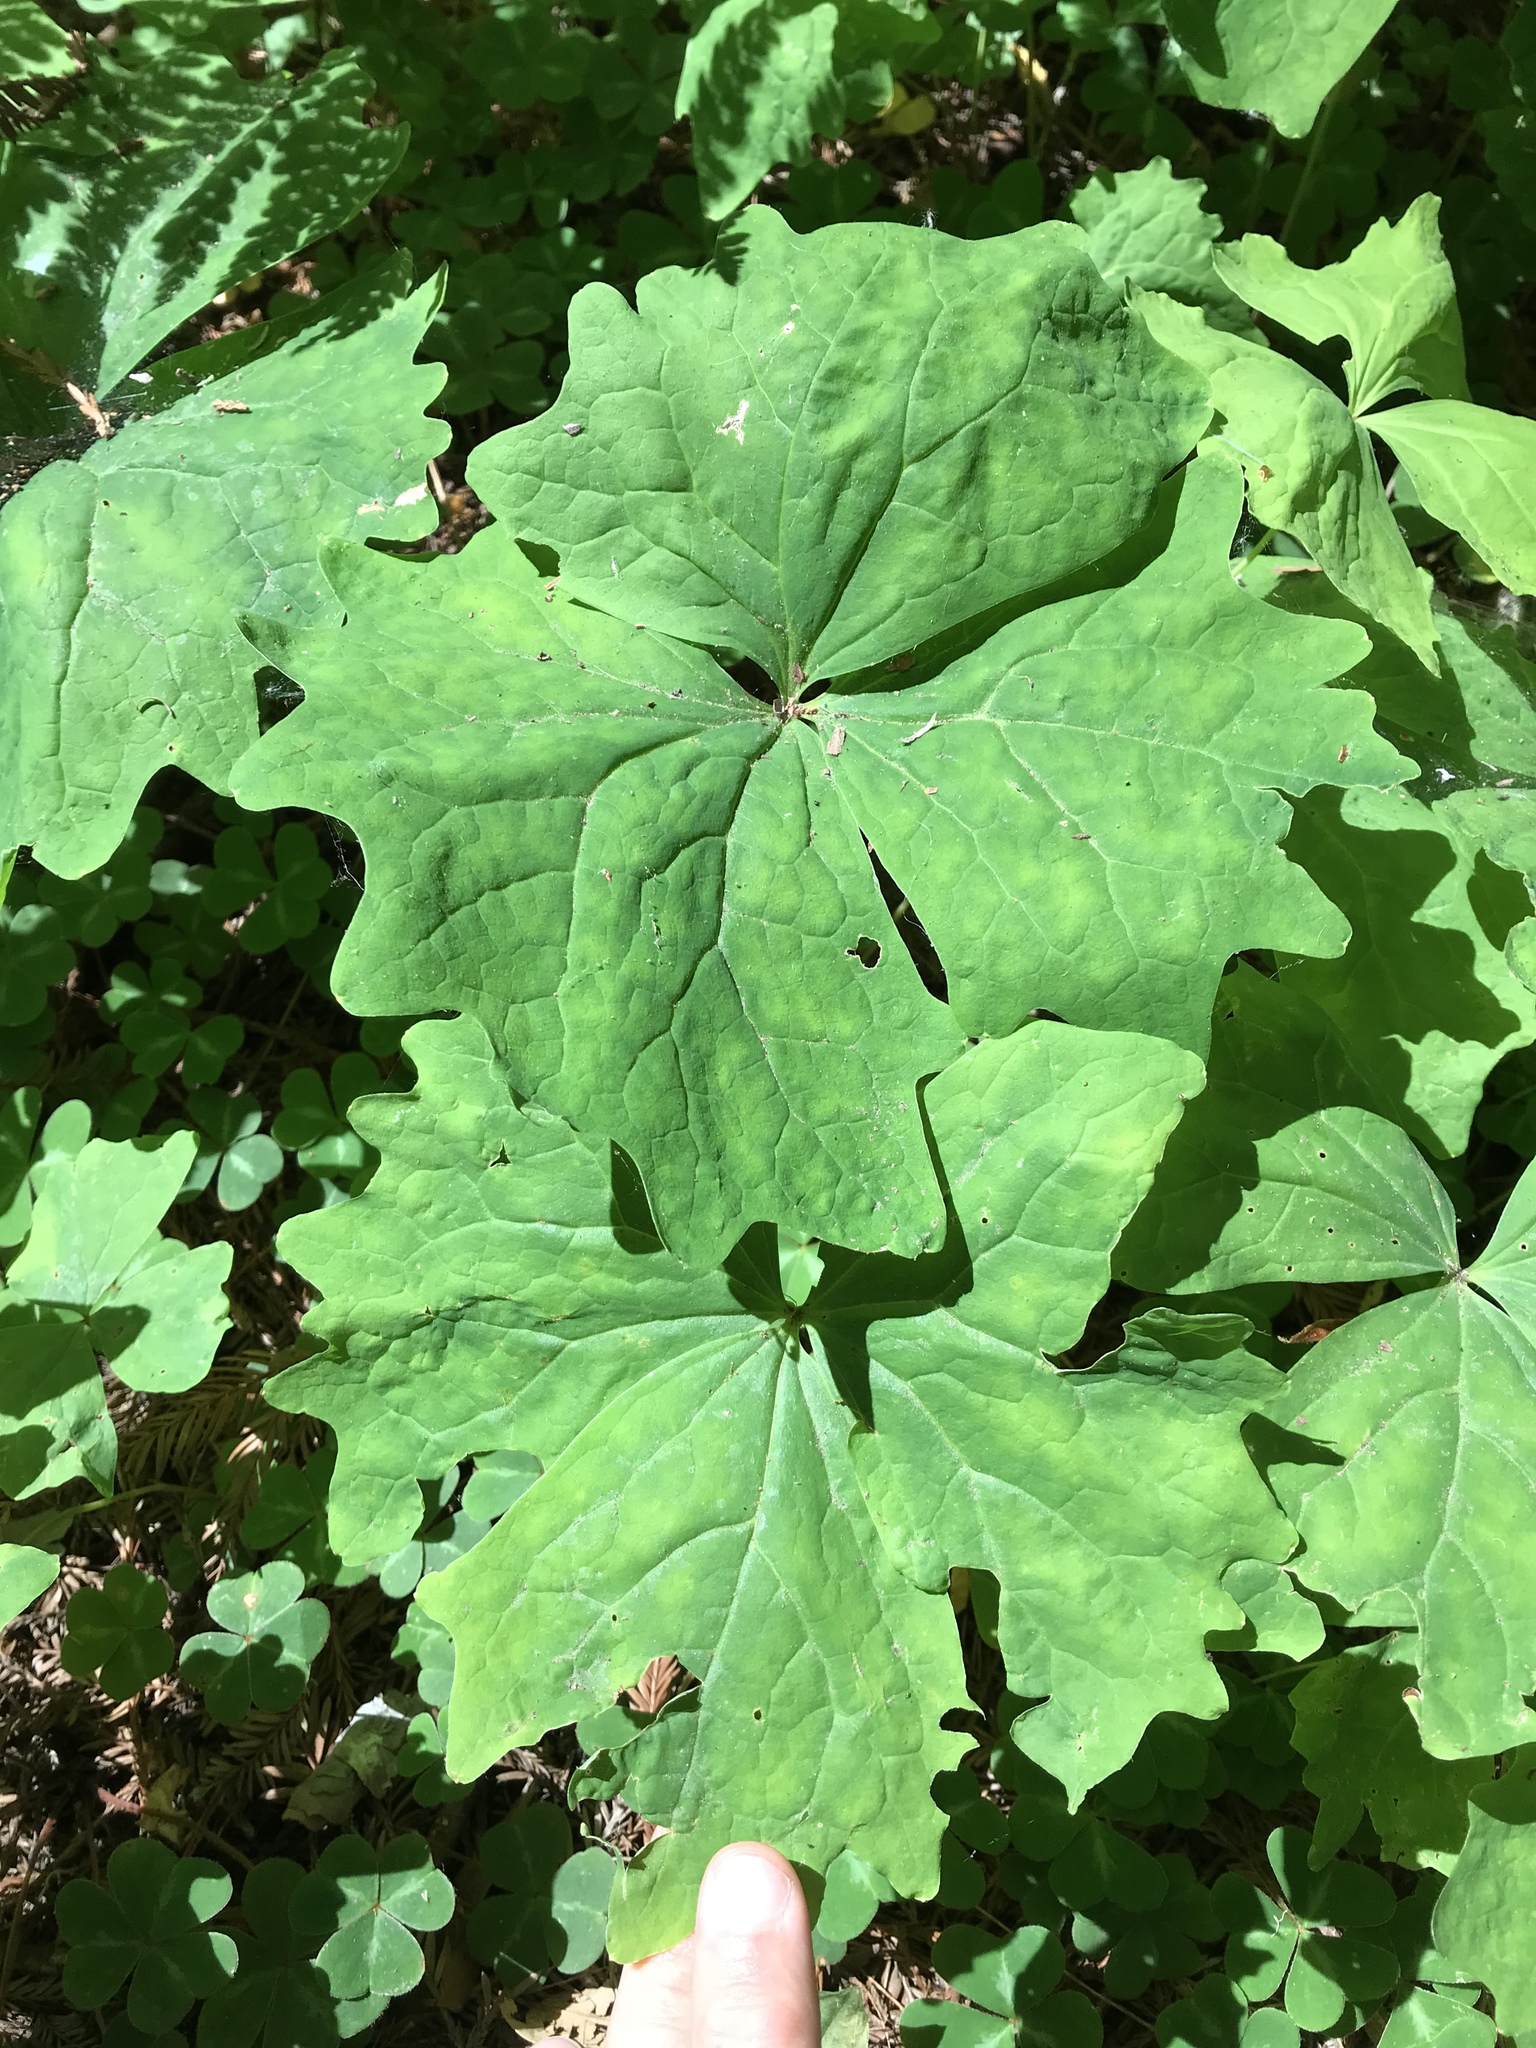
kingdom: Plantae
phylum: Tracheophyta
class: Magnoliopsida
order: Ranunculales
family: Berberidaceae
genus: Achlys
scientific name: Achlys triphylla
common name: Vanilla-leaf
